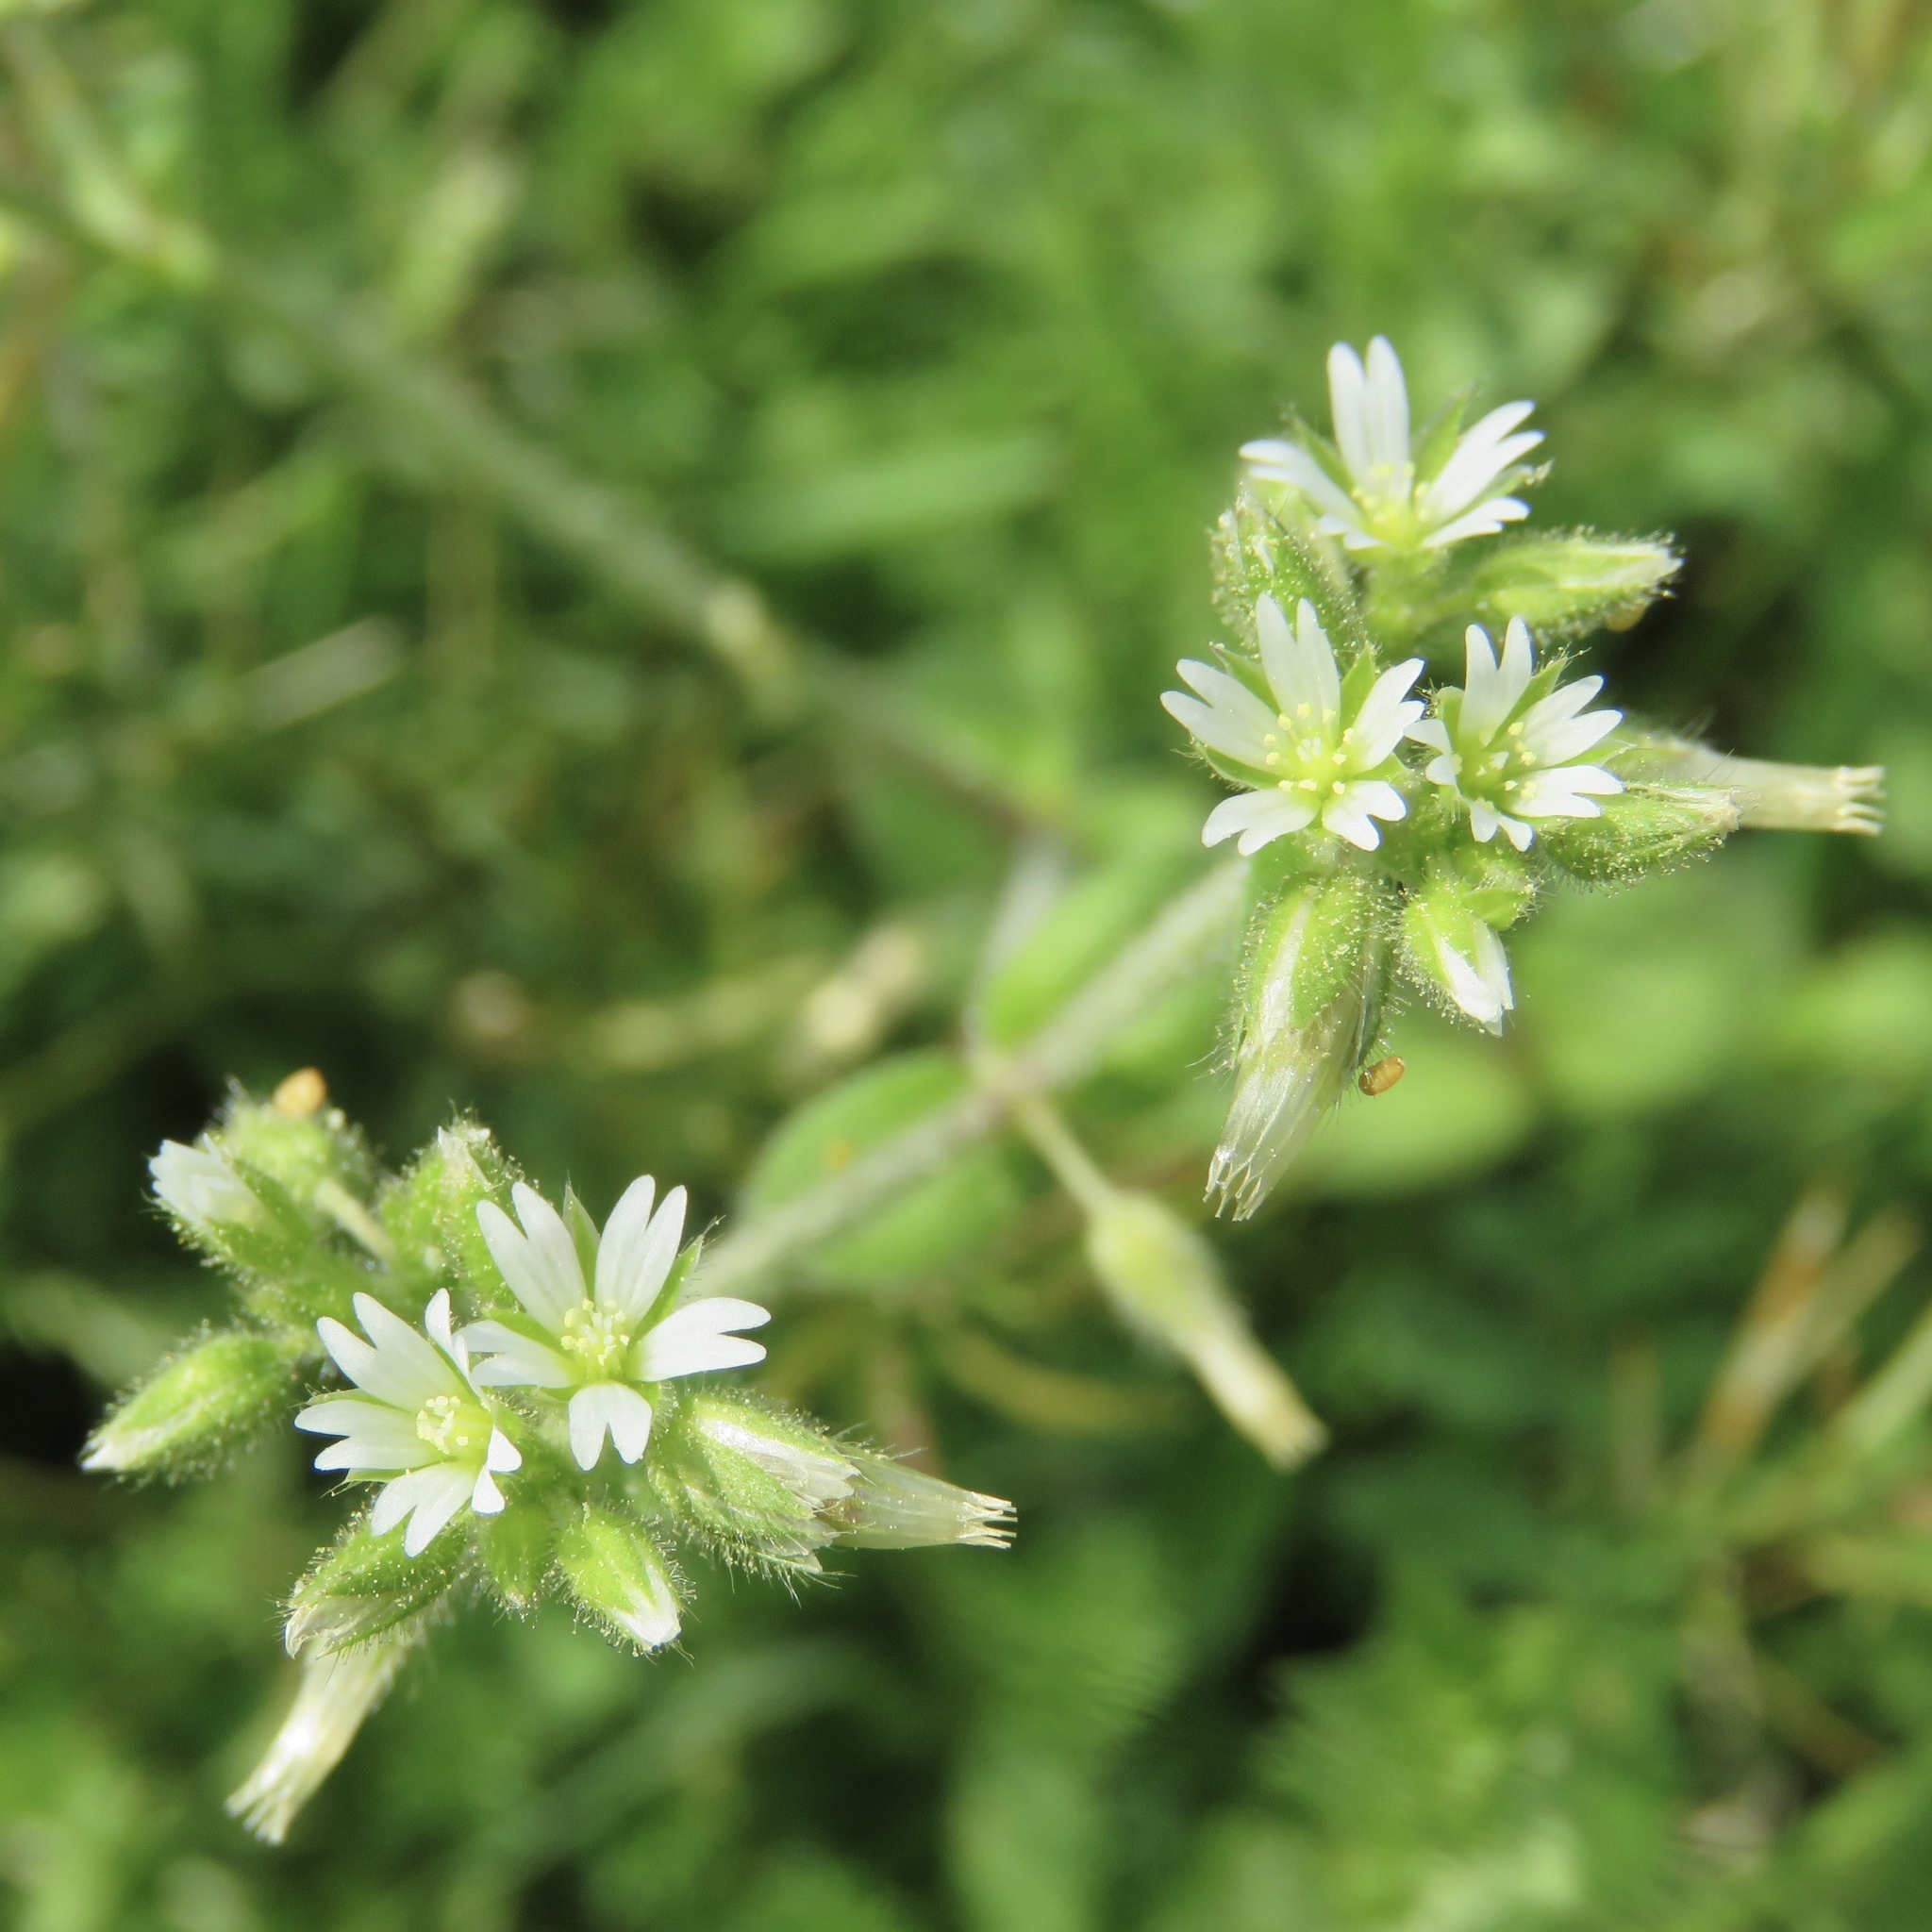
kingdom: Plantae
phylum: Tracheophyta
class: Magnoliopsida
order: Caryophyllales
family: Caryophyllaceae
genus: Cerastium
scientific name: Cerastium glomeratum
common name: Sticky chickweed
